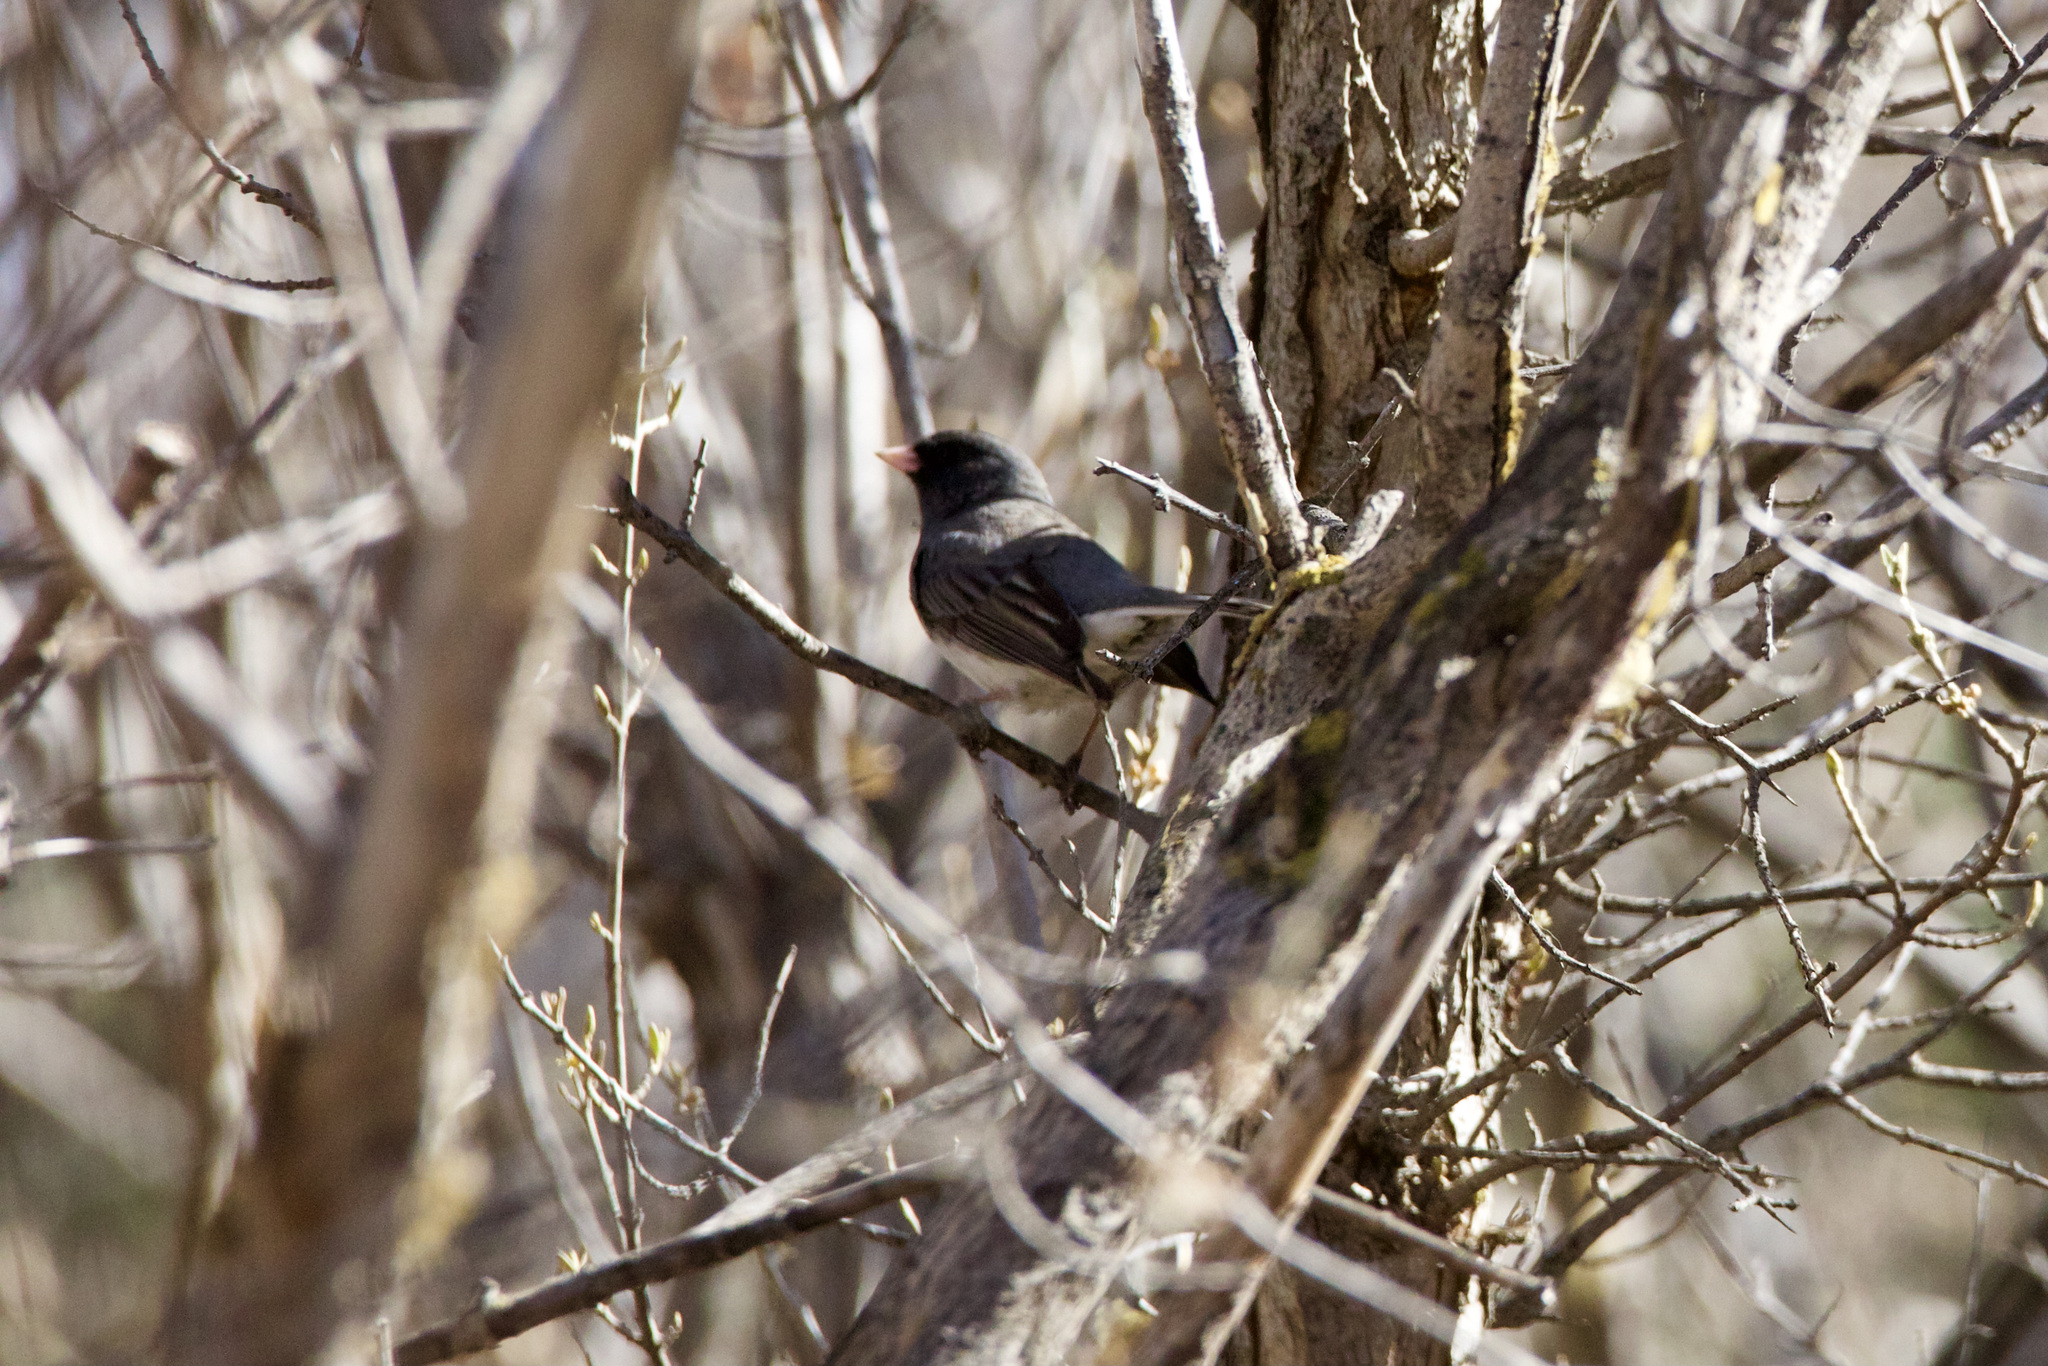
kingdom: Animalia
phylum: Chordata
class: Aves
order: Passeriformes
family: Passerellidae
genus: Junco
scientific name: Junco hyemalis
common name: Dark-eyed junco
